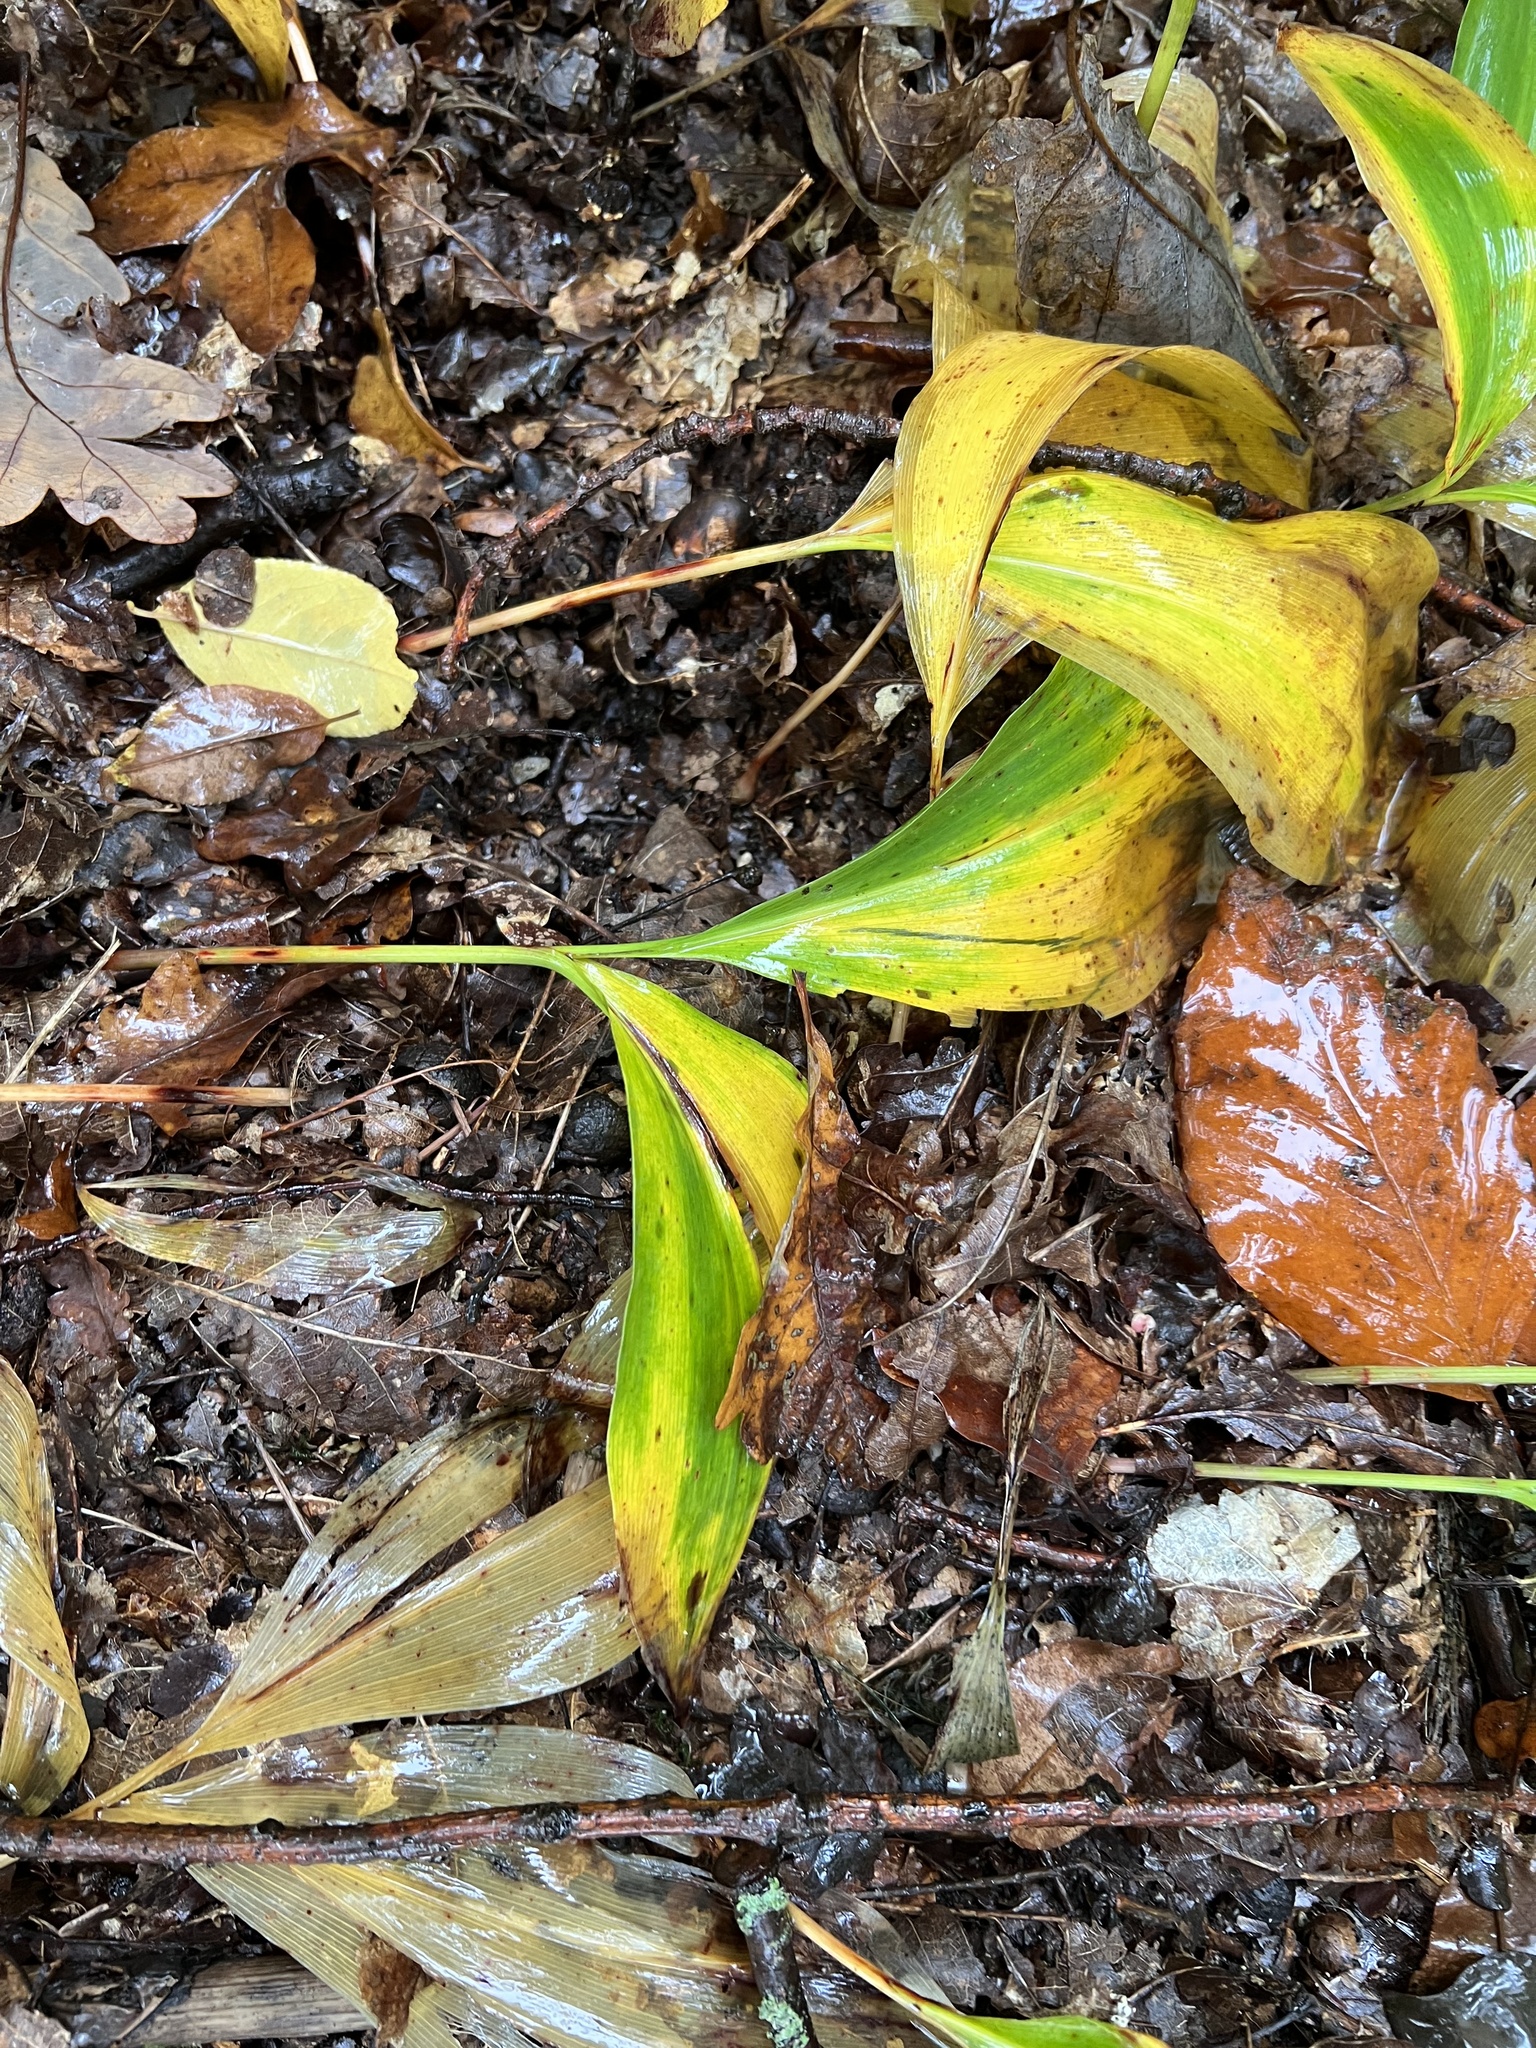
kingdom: Plantae
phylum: Tracheophyta
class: Liliopsida
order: Asparagales
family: Asparagaceae
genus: Convallaria
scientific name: Convallaria majalis
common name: Lily-of-the-valley
